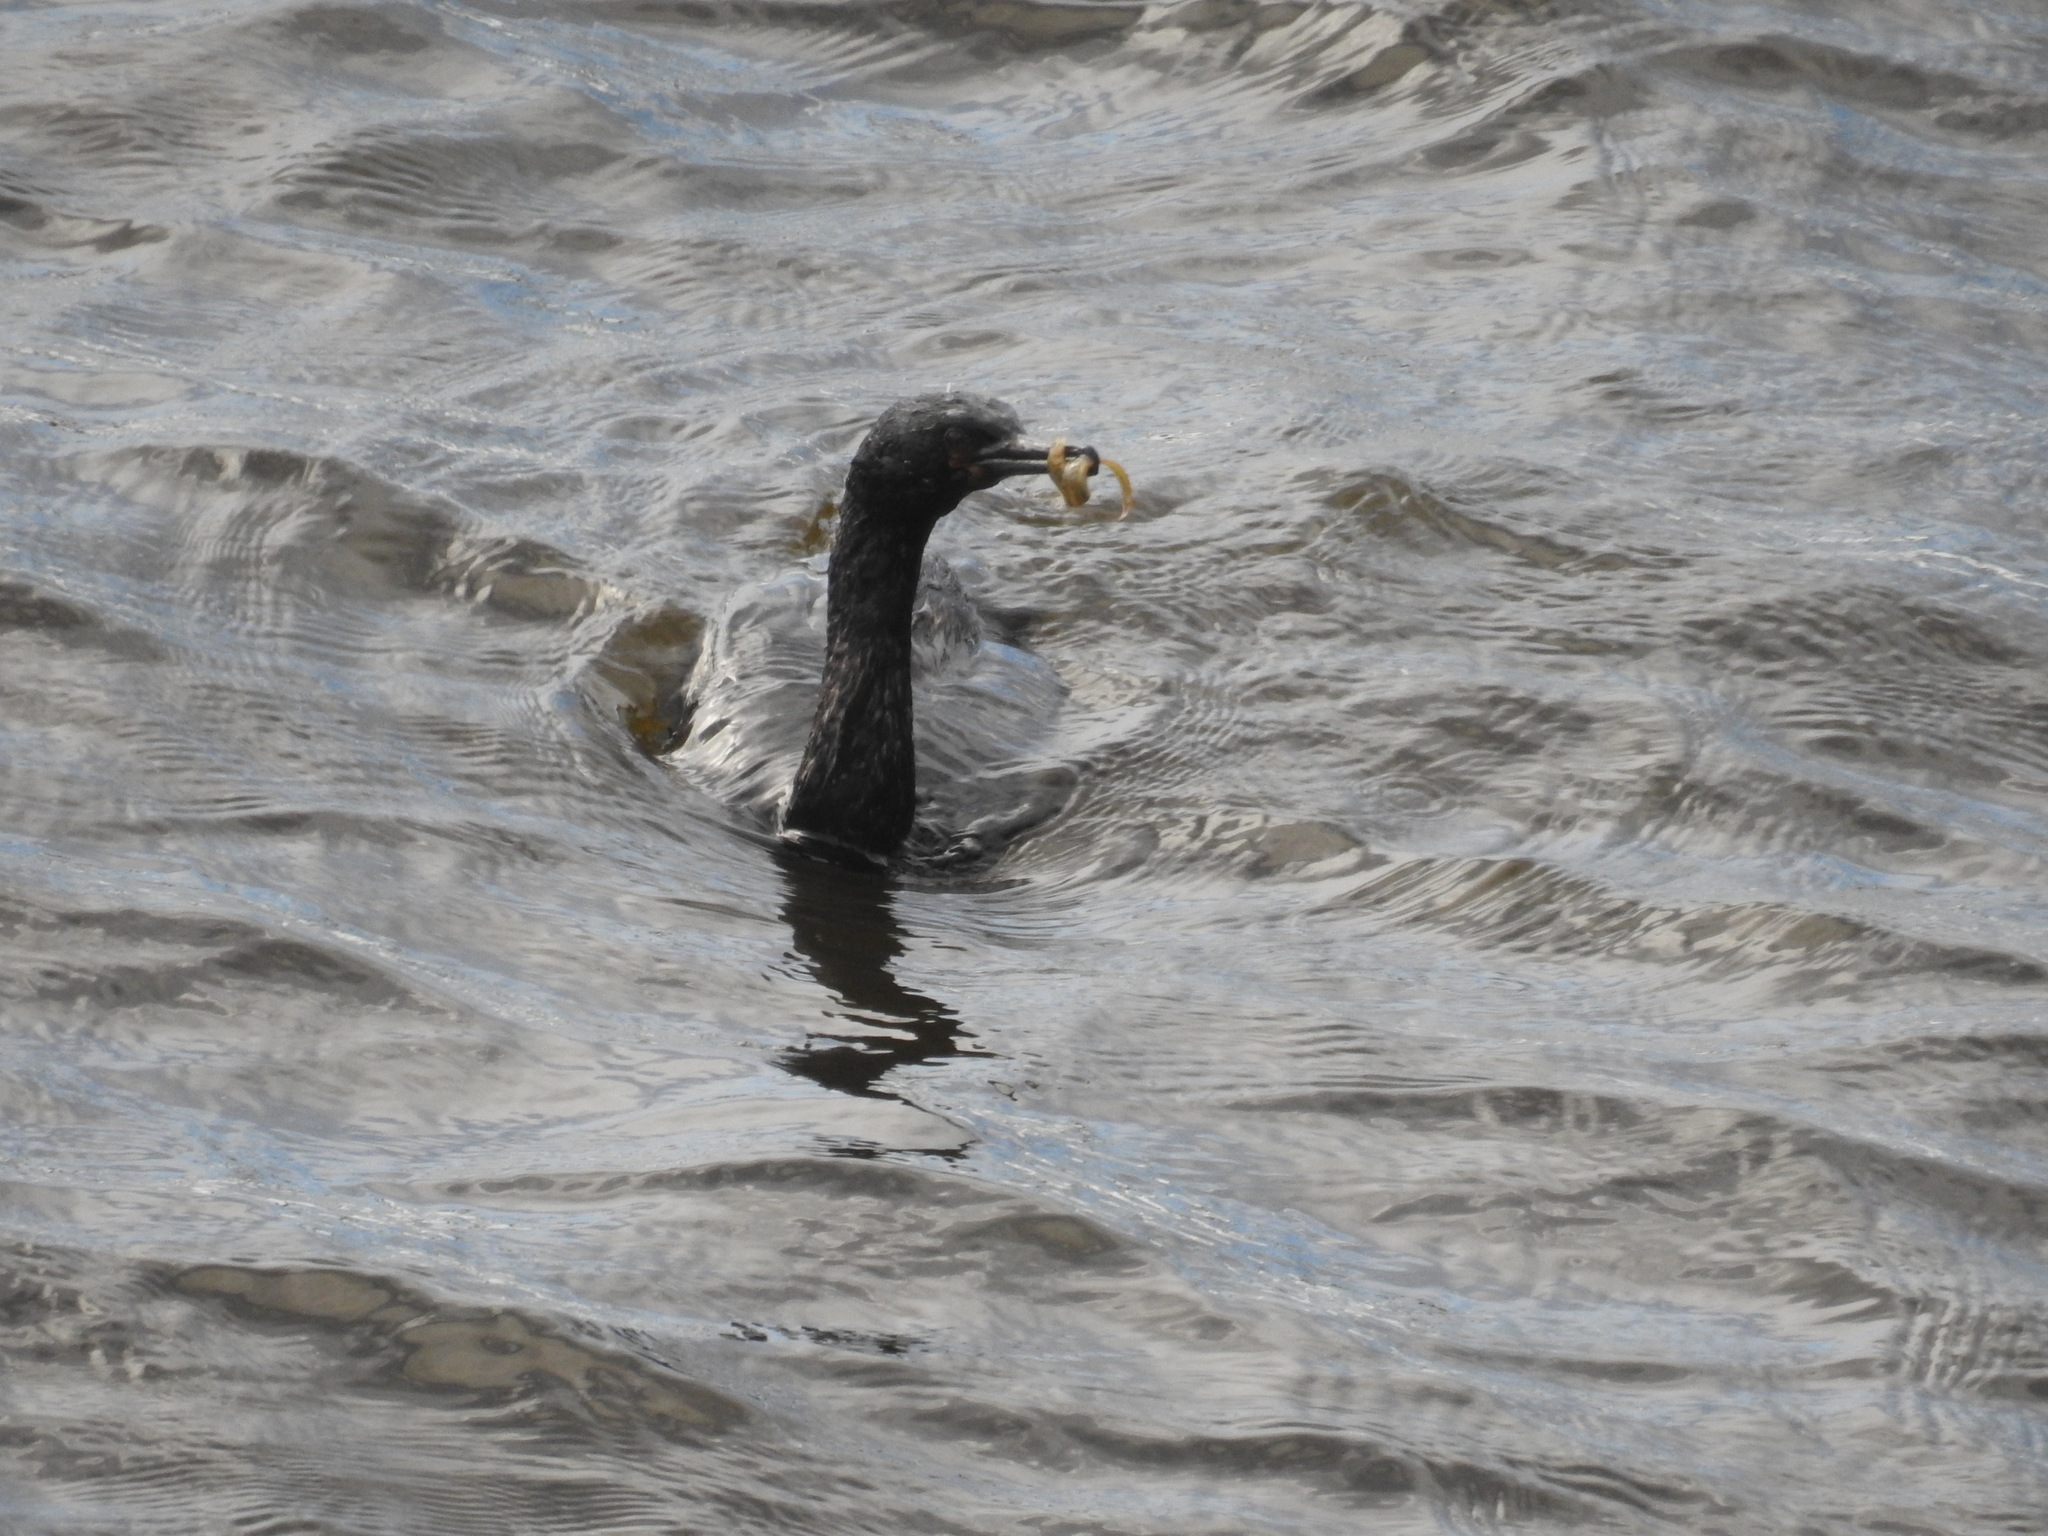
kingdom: Animalia
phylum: Chordata
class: Aves
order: Suliformes
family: Phalacrocoracidae
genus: Phalacrocorax
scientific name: Phalacrocorax pelagicus
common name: Pelagic cormorant
